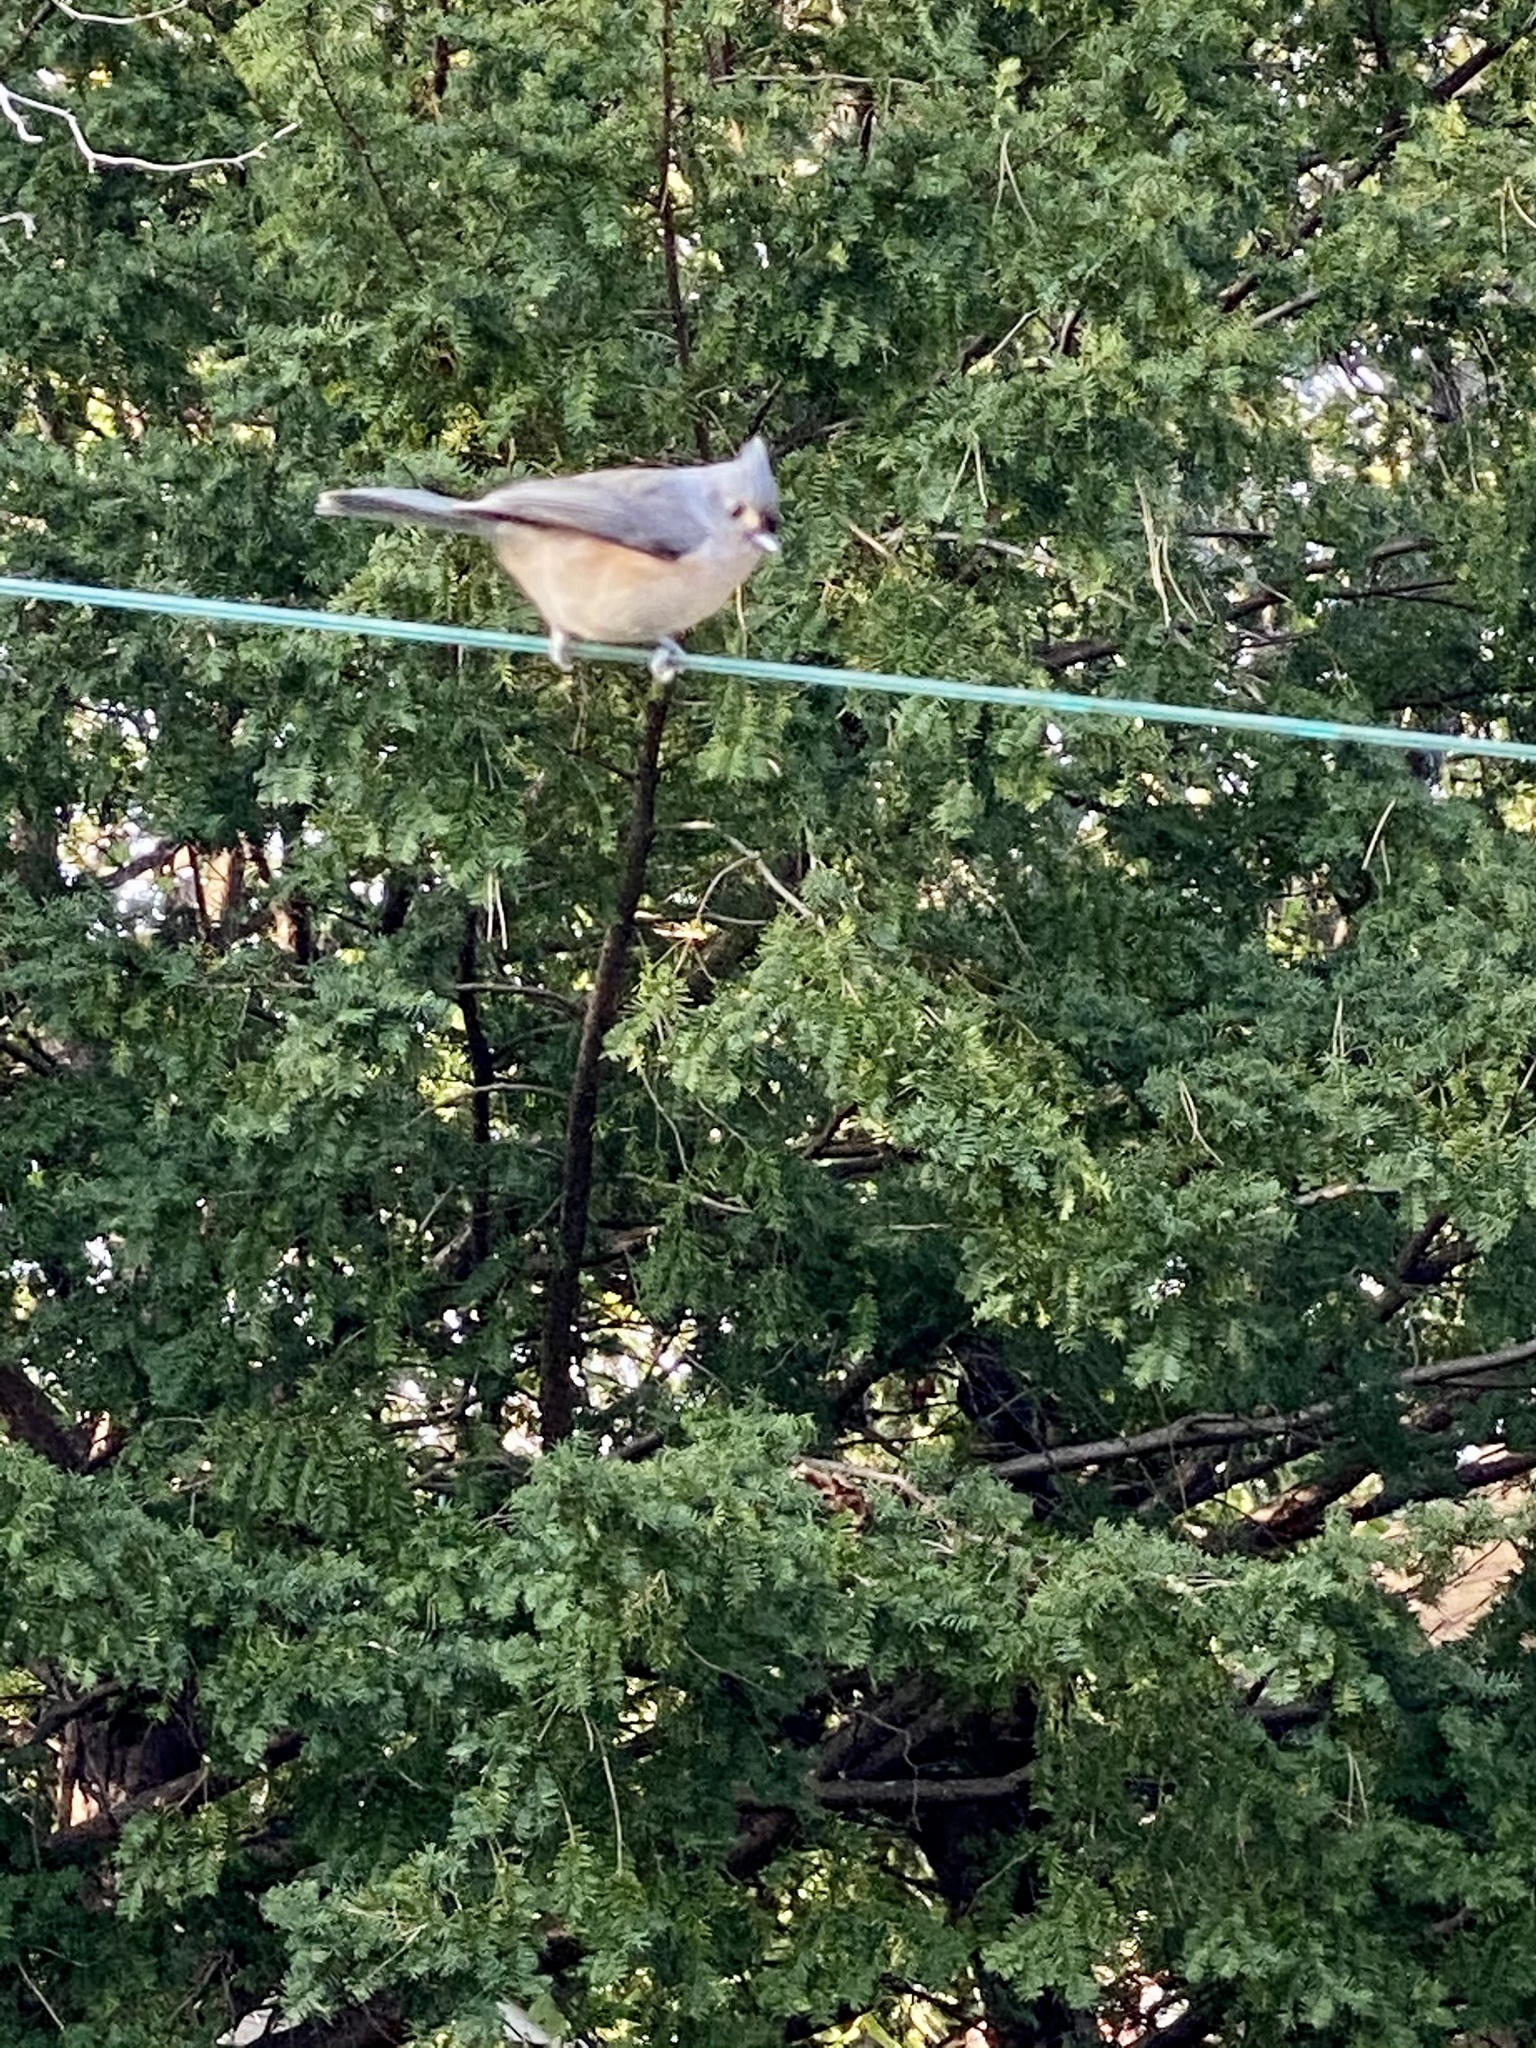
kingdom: Animalia
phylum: Chordata
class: Aves
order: Passeriformes
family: Paridae
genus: Baeolophus
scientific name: Baeolophus bicolor
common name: Tufted titmouse
